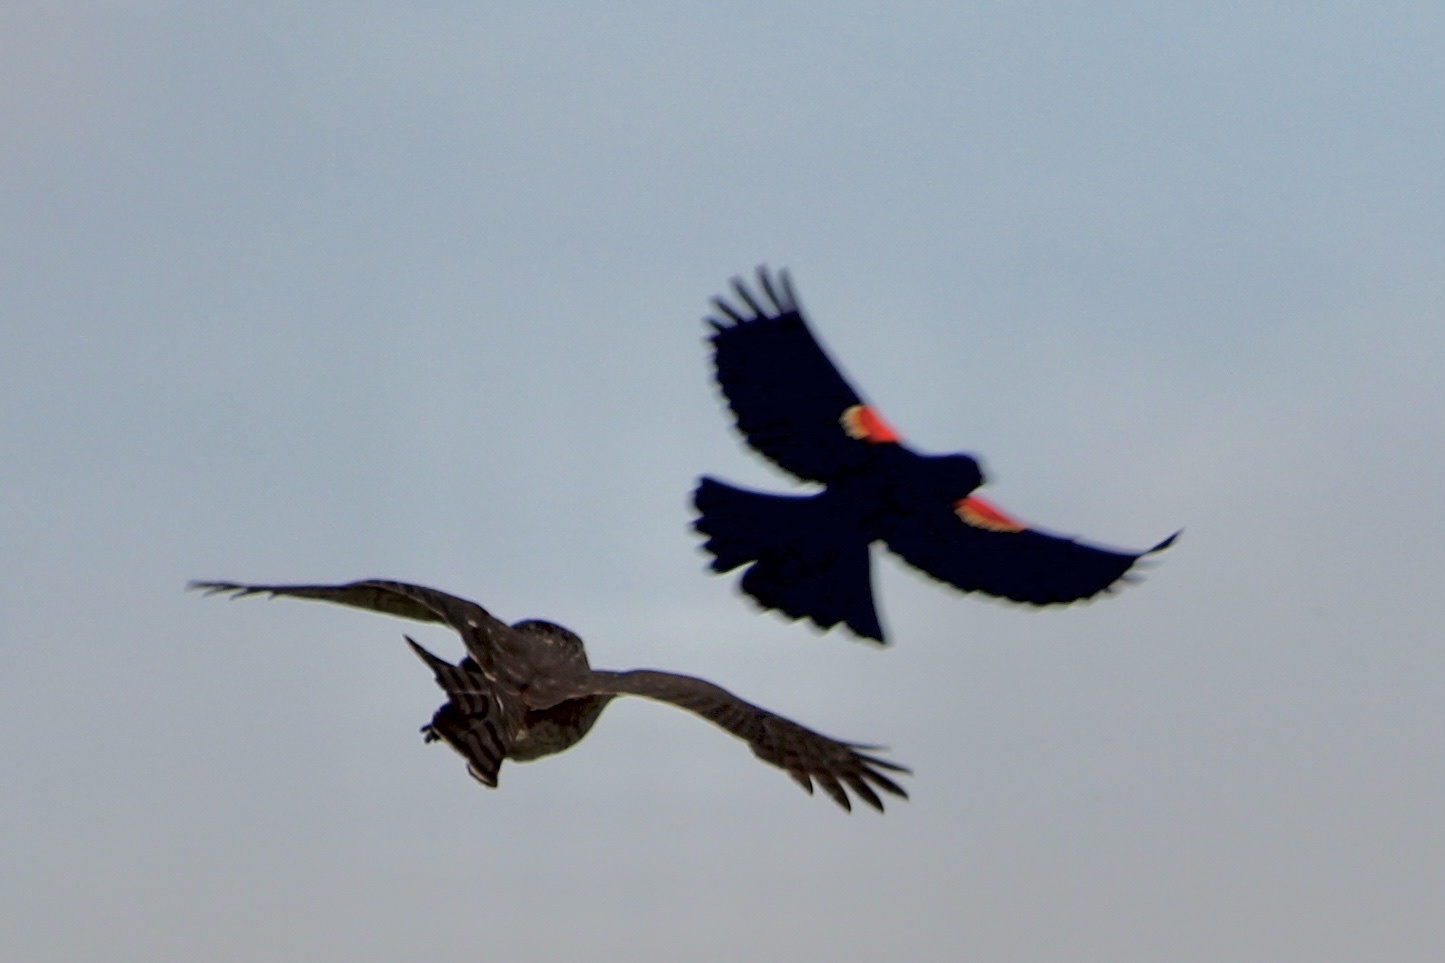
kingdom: Animalia
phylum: Chordata
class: Aves
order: Passeriformes
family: Icteridae
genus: Agelaius
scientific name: Agelaius phoeniceus
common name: Red-winged blackbird
